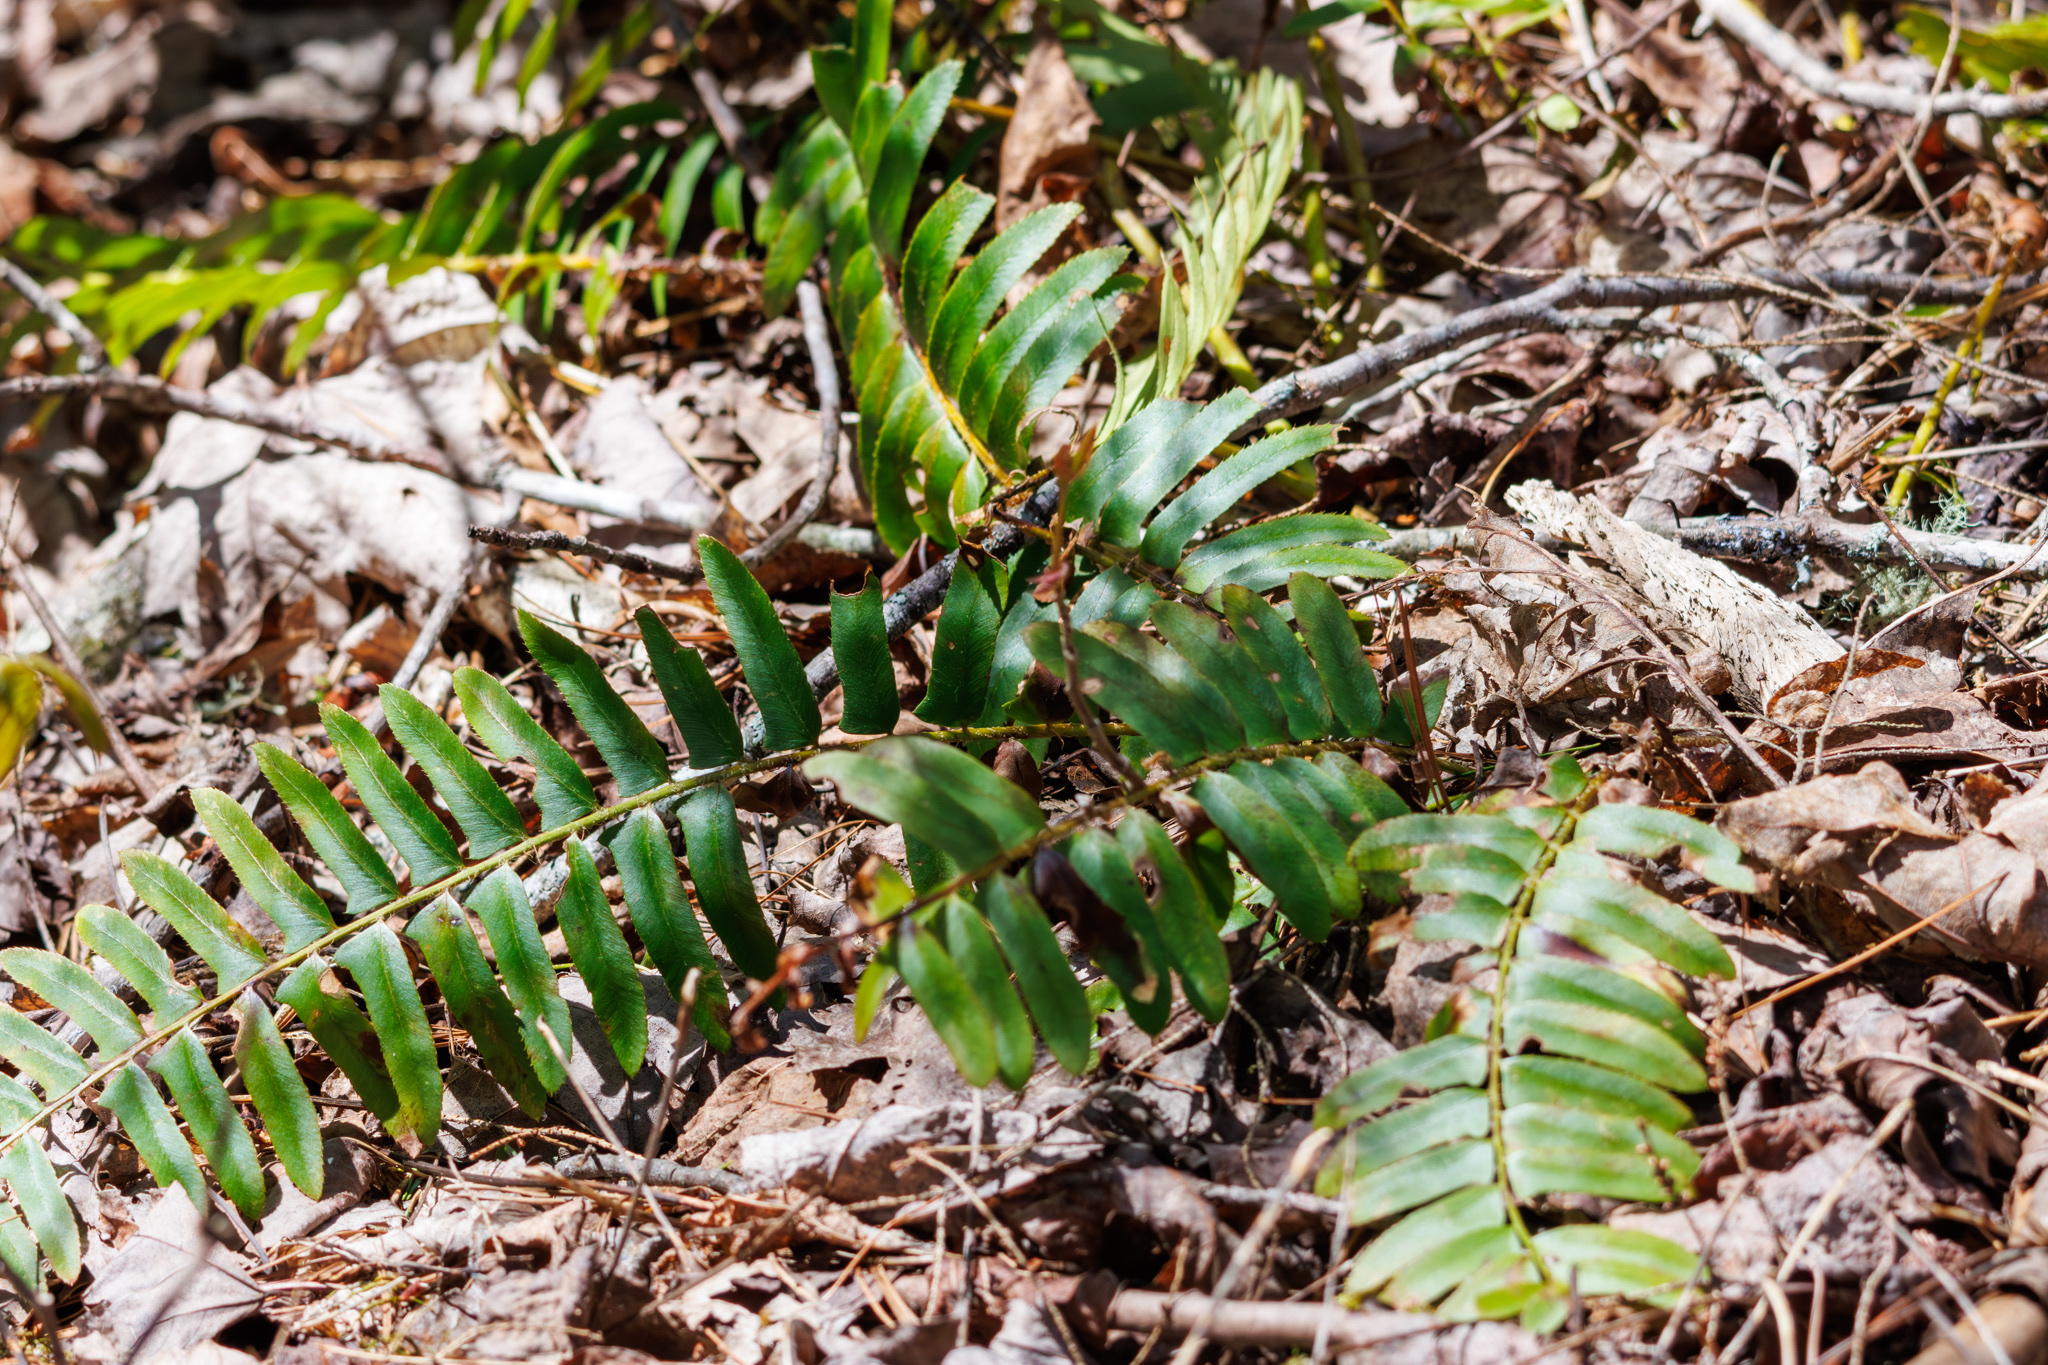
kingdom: Plantae
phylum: Tracheophyta
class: Polypodiopsida
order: Polypodiales
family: Dryopteridaceae
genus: Polystichum
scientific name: Polystichum acrostichoides
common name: Christmas fern
